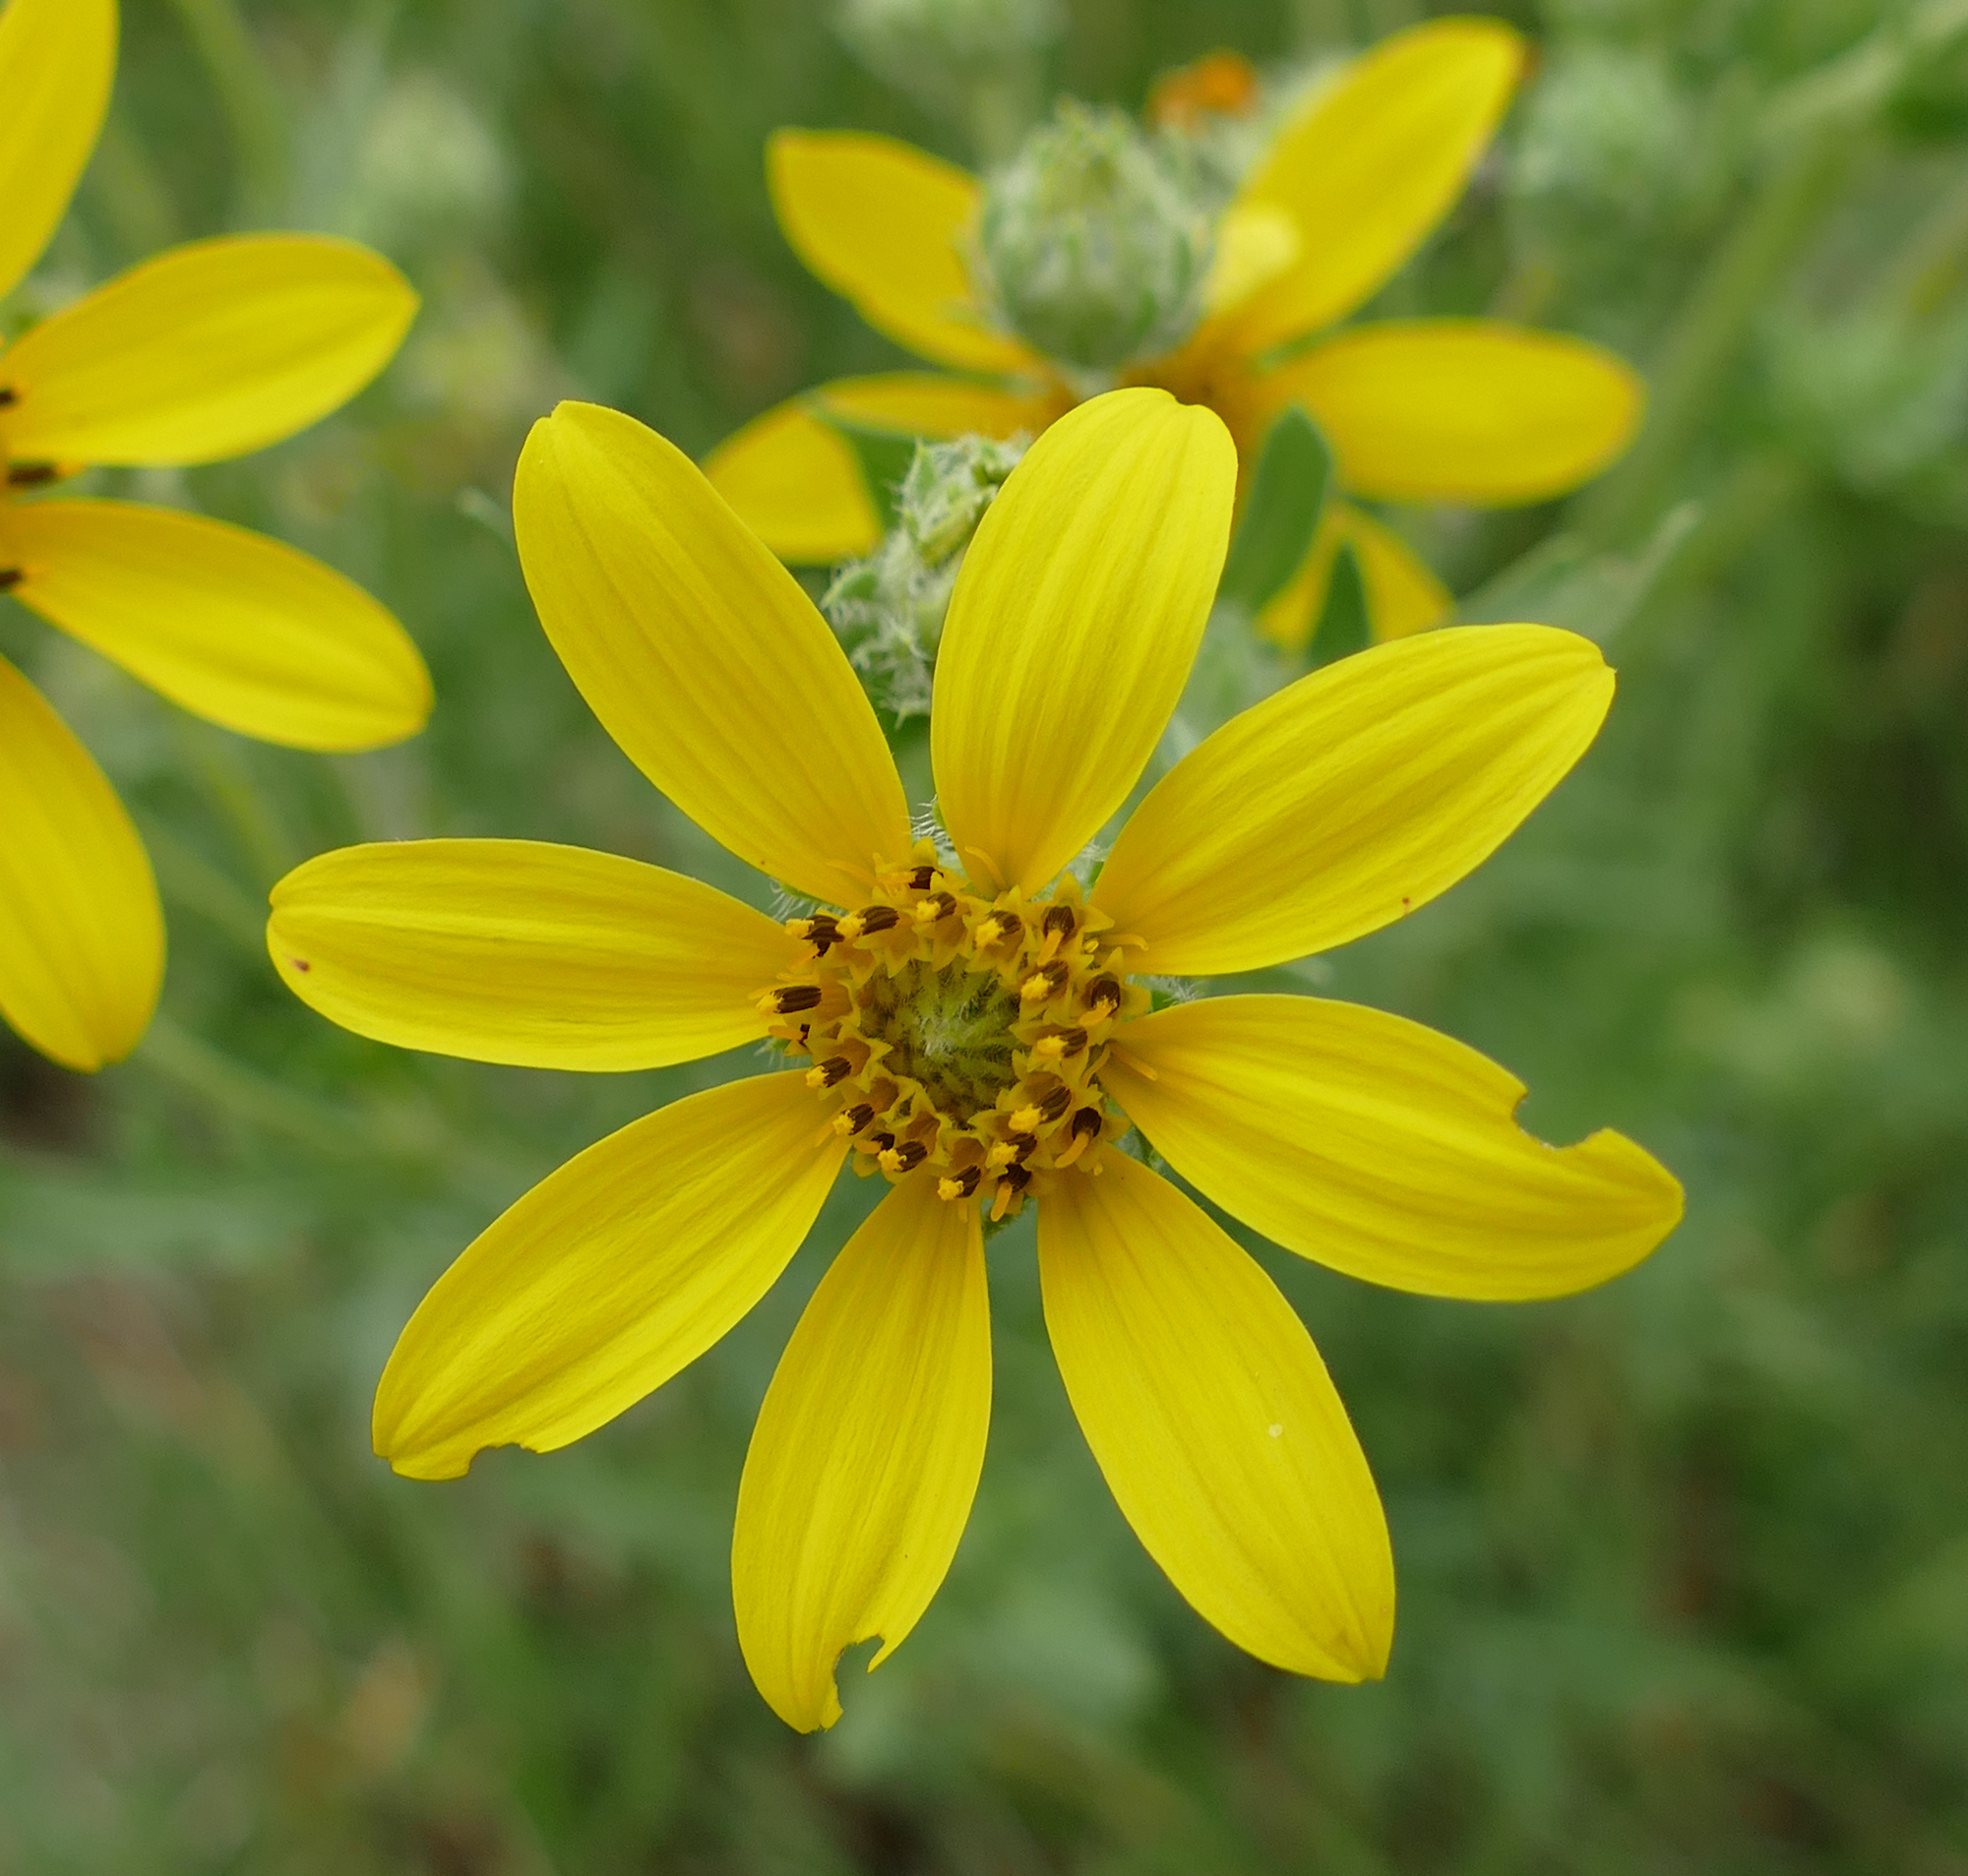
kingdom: Plantae
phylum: Tracheophyta
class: Magnoliopsida
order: Asterales
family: Asteraceae
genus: Engelmannia
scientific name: Engelmannia peristenia
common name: Engelmann's daisy
